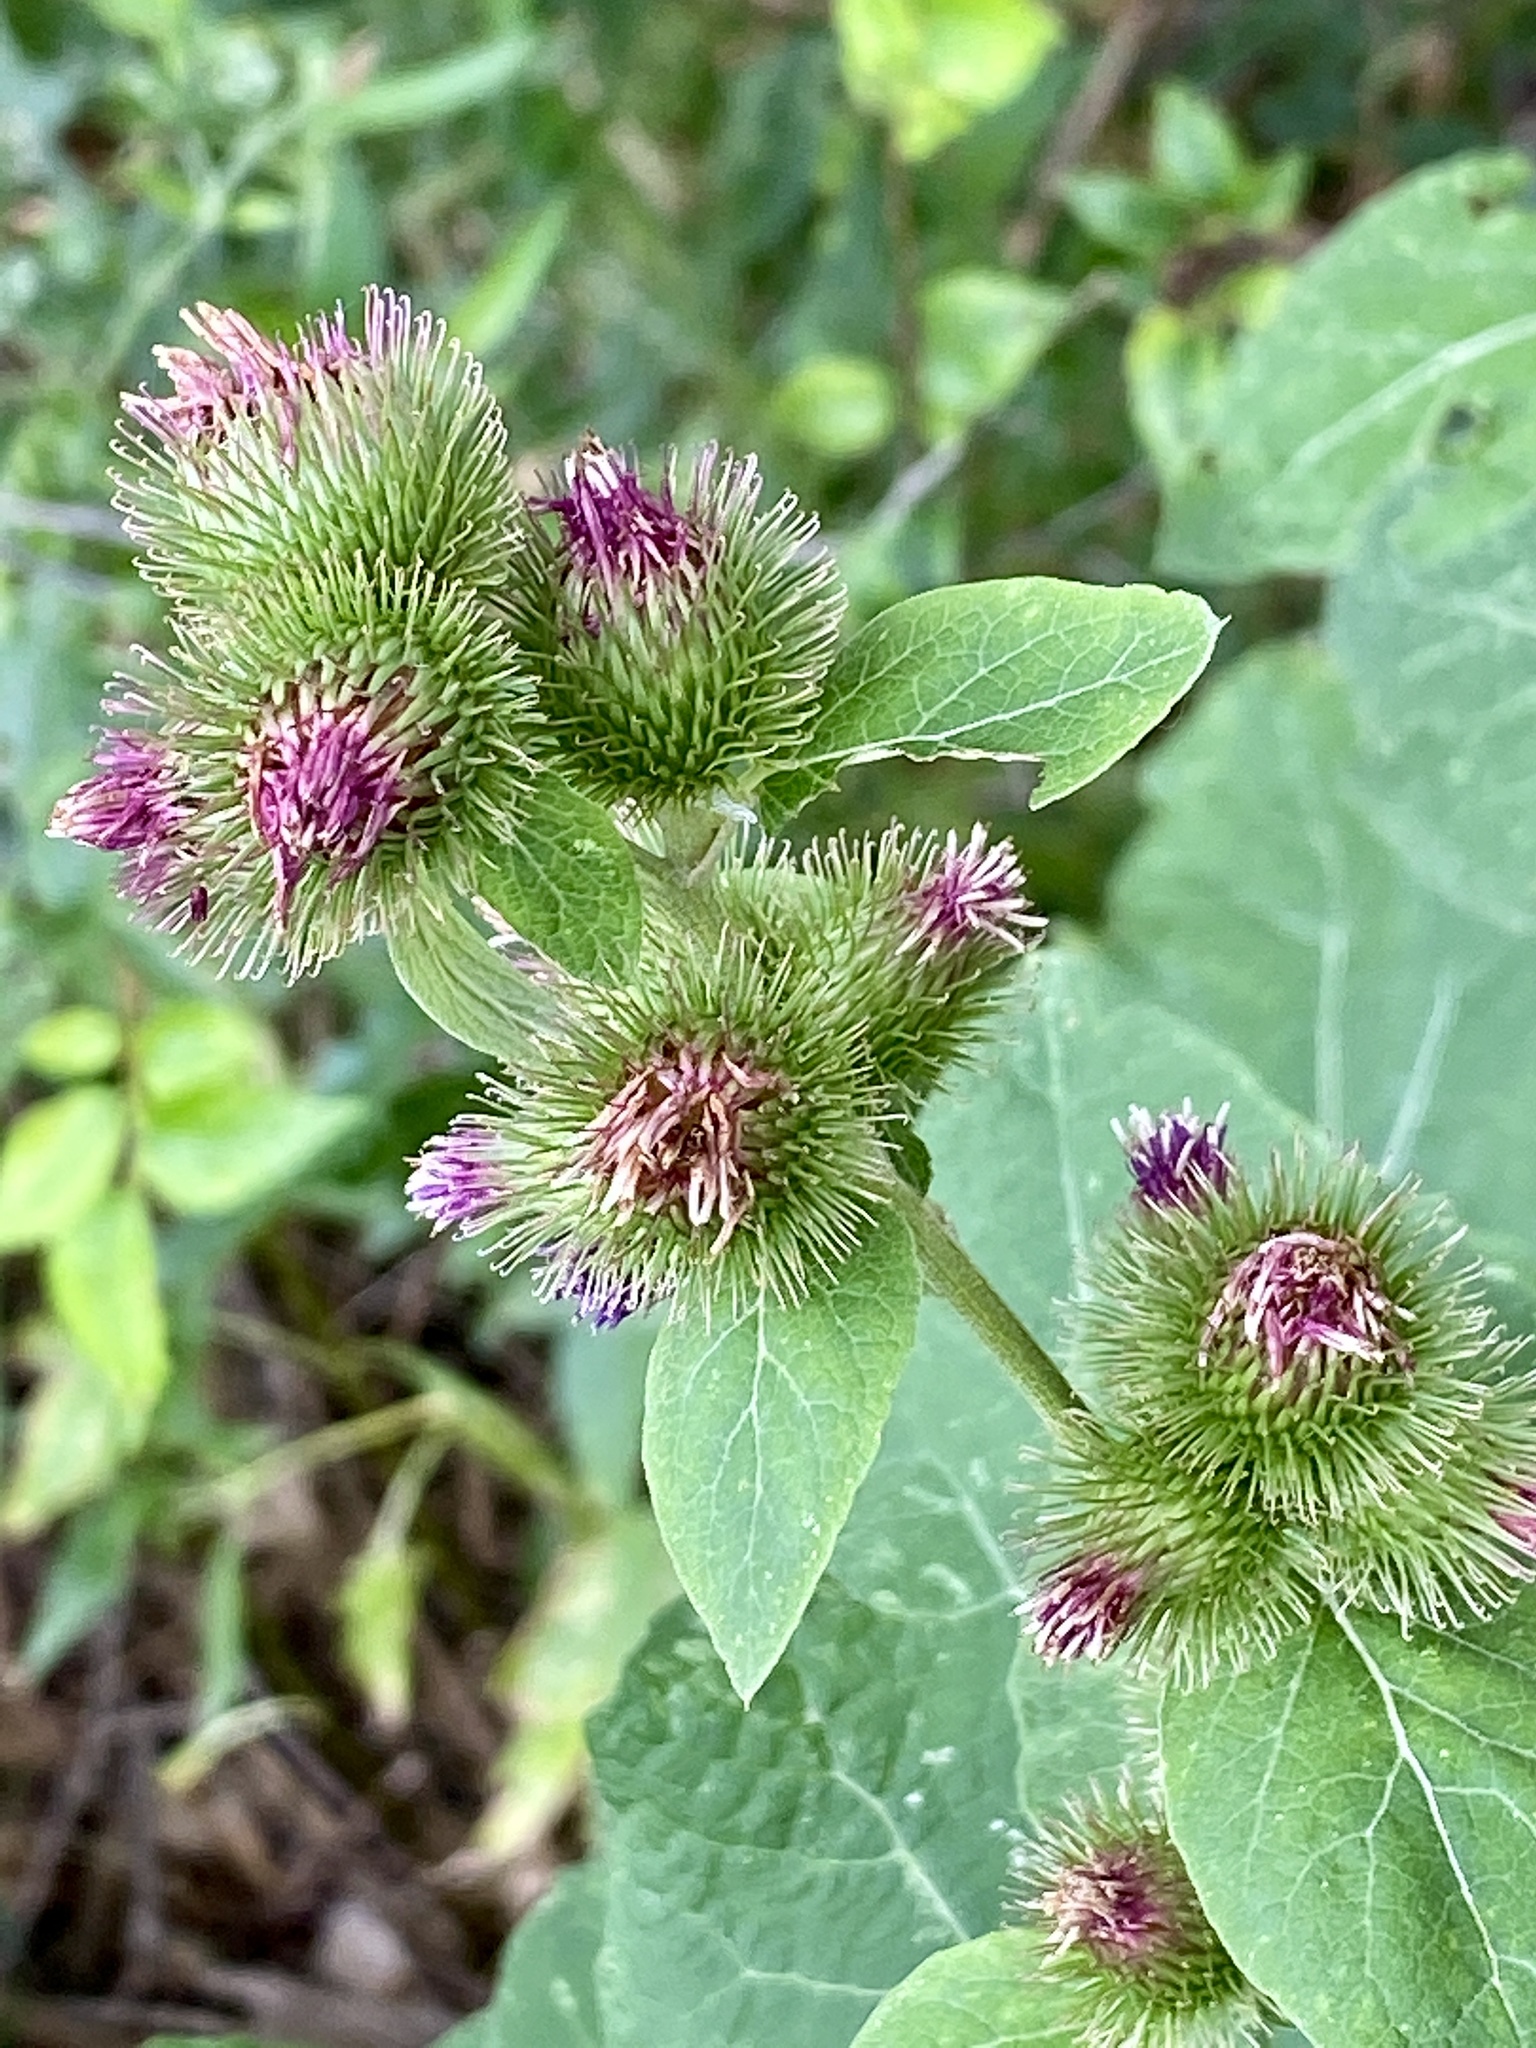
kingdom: Plantae
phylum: Tracheophyta
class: Magnoliopsida
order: Asterales
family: Asteraceae
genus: Arctium
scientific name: Arctium minus
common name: Lesser burdock
